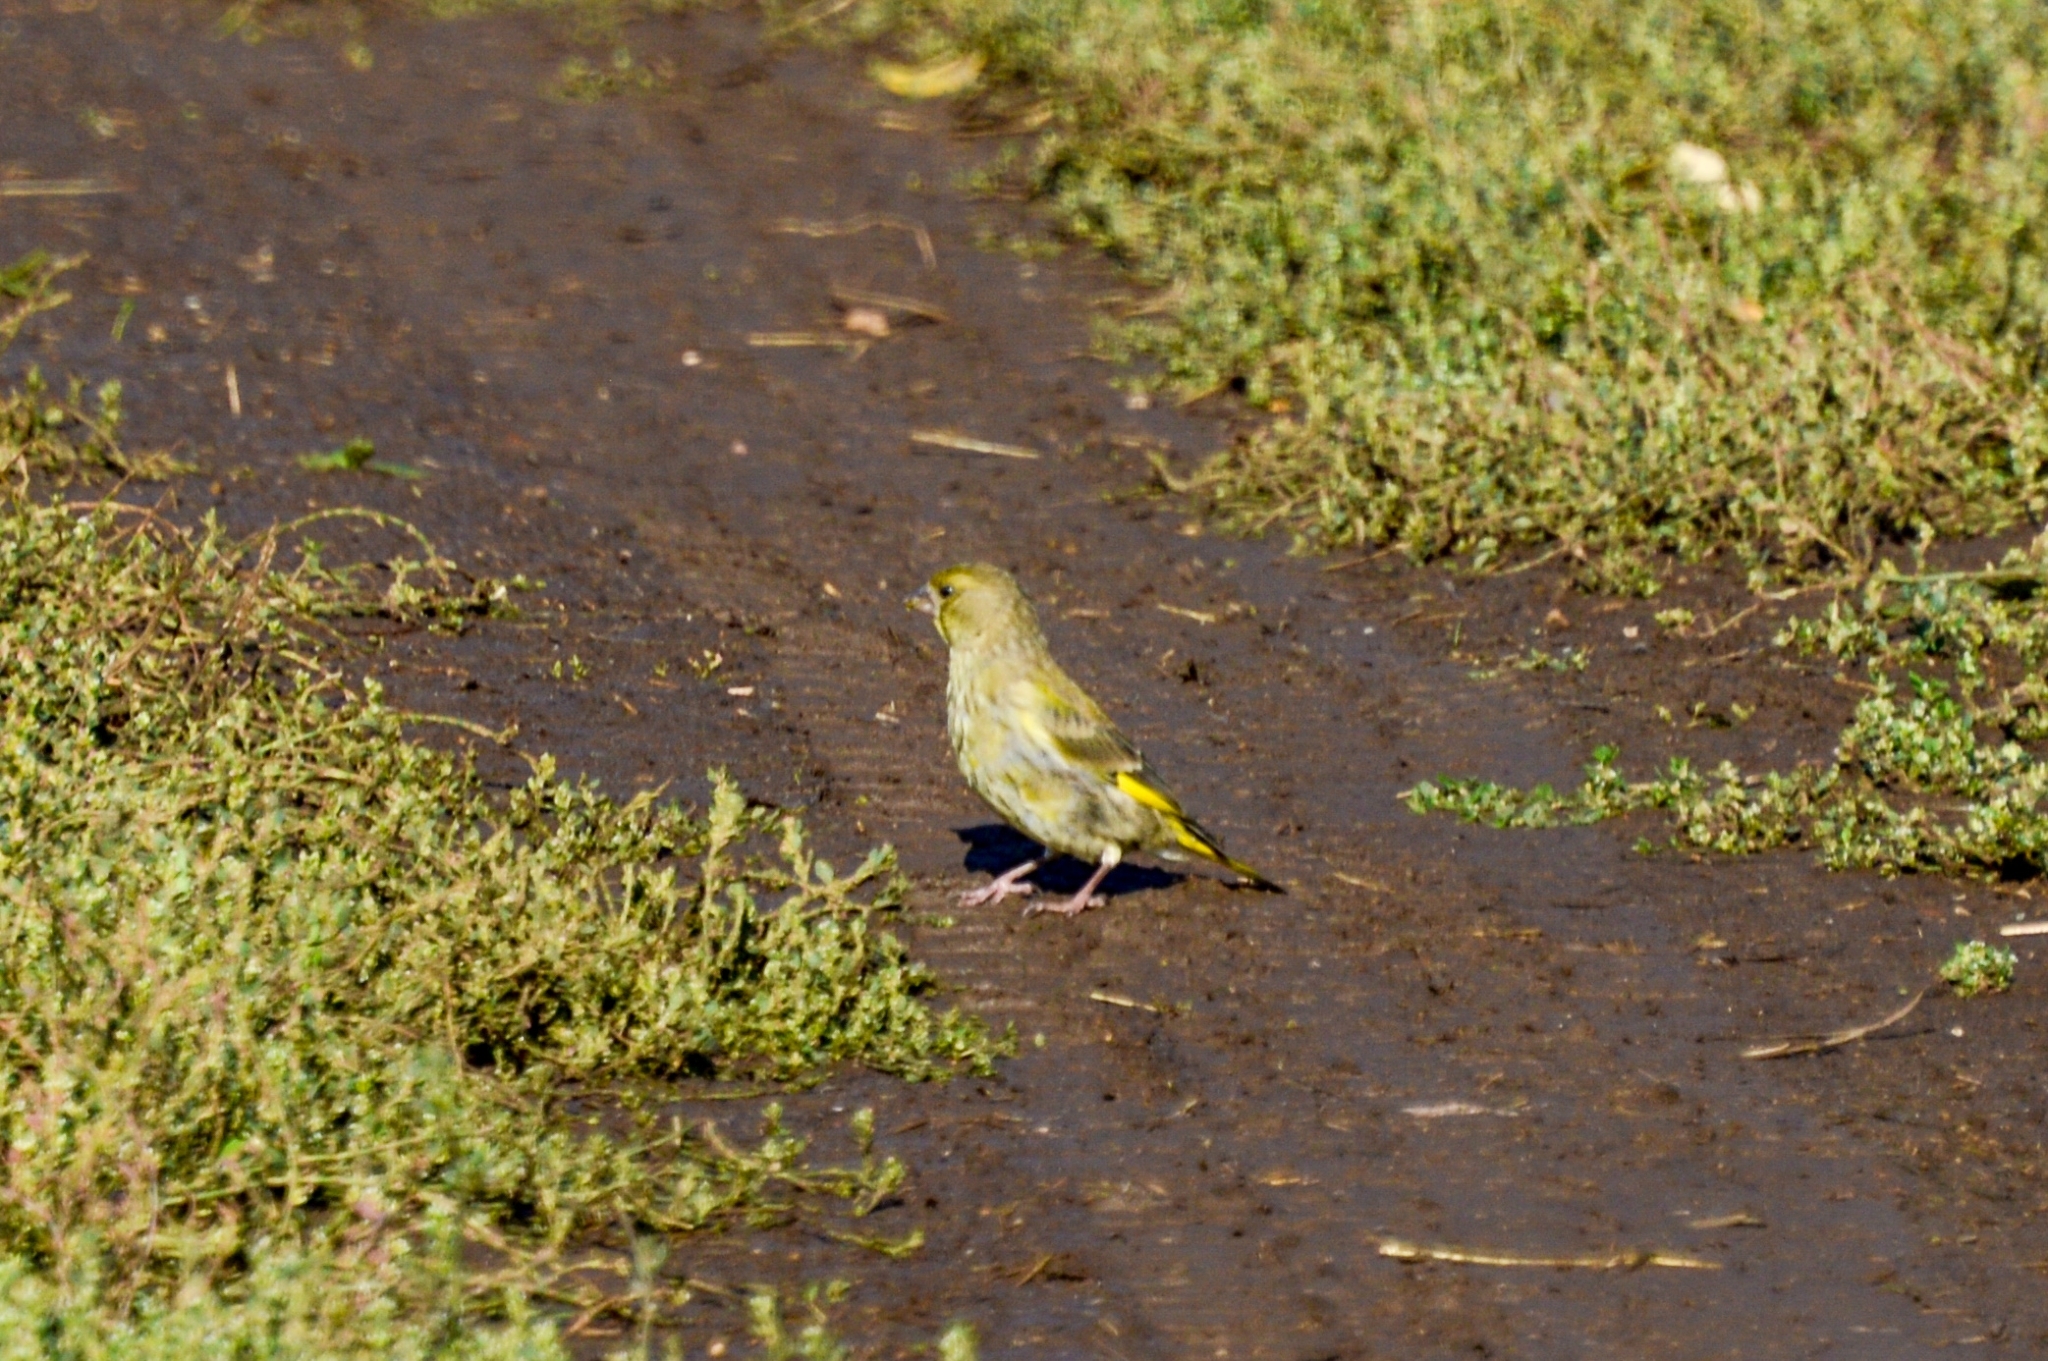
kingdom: Plantae
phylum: Tracheophyta
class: Liliopsida
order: Poales
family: Poaceae
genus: Chloris
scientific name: Chloris chloris
